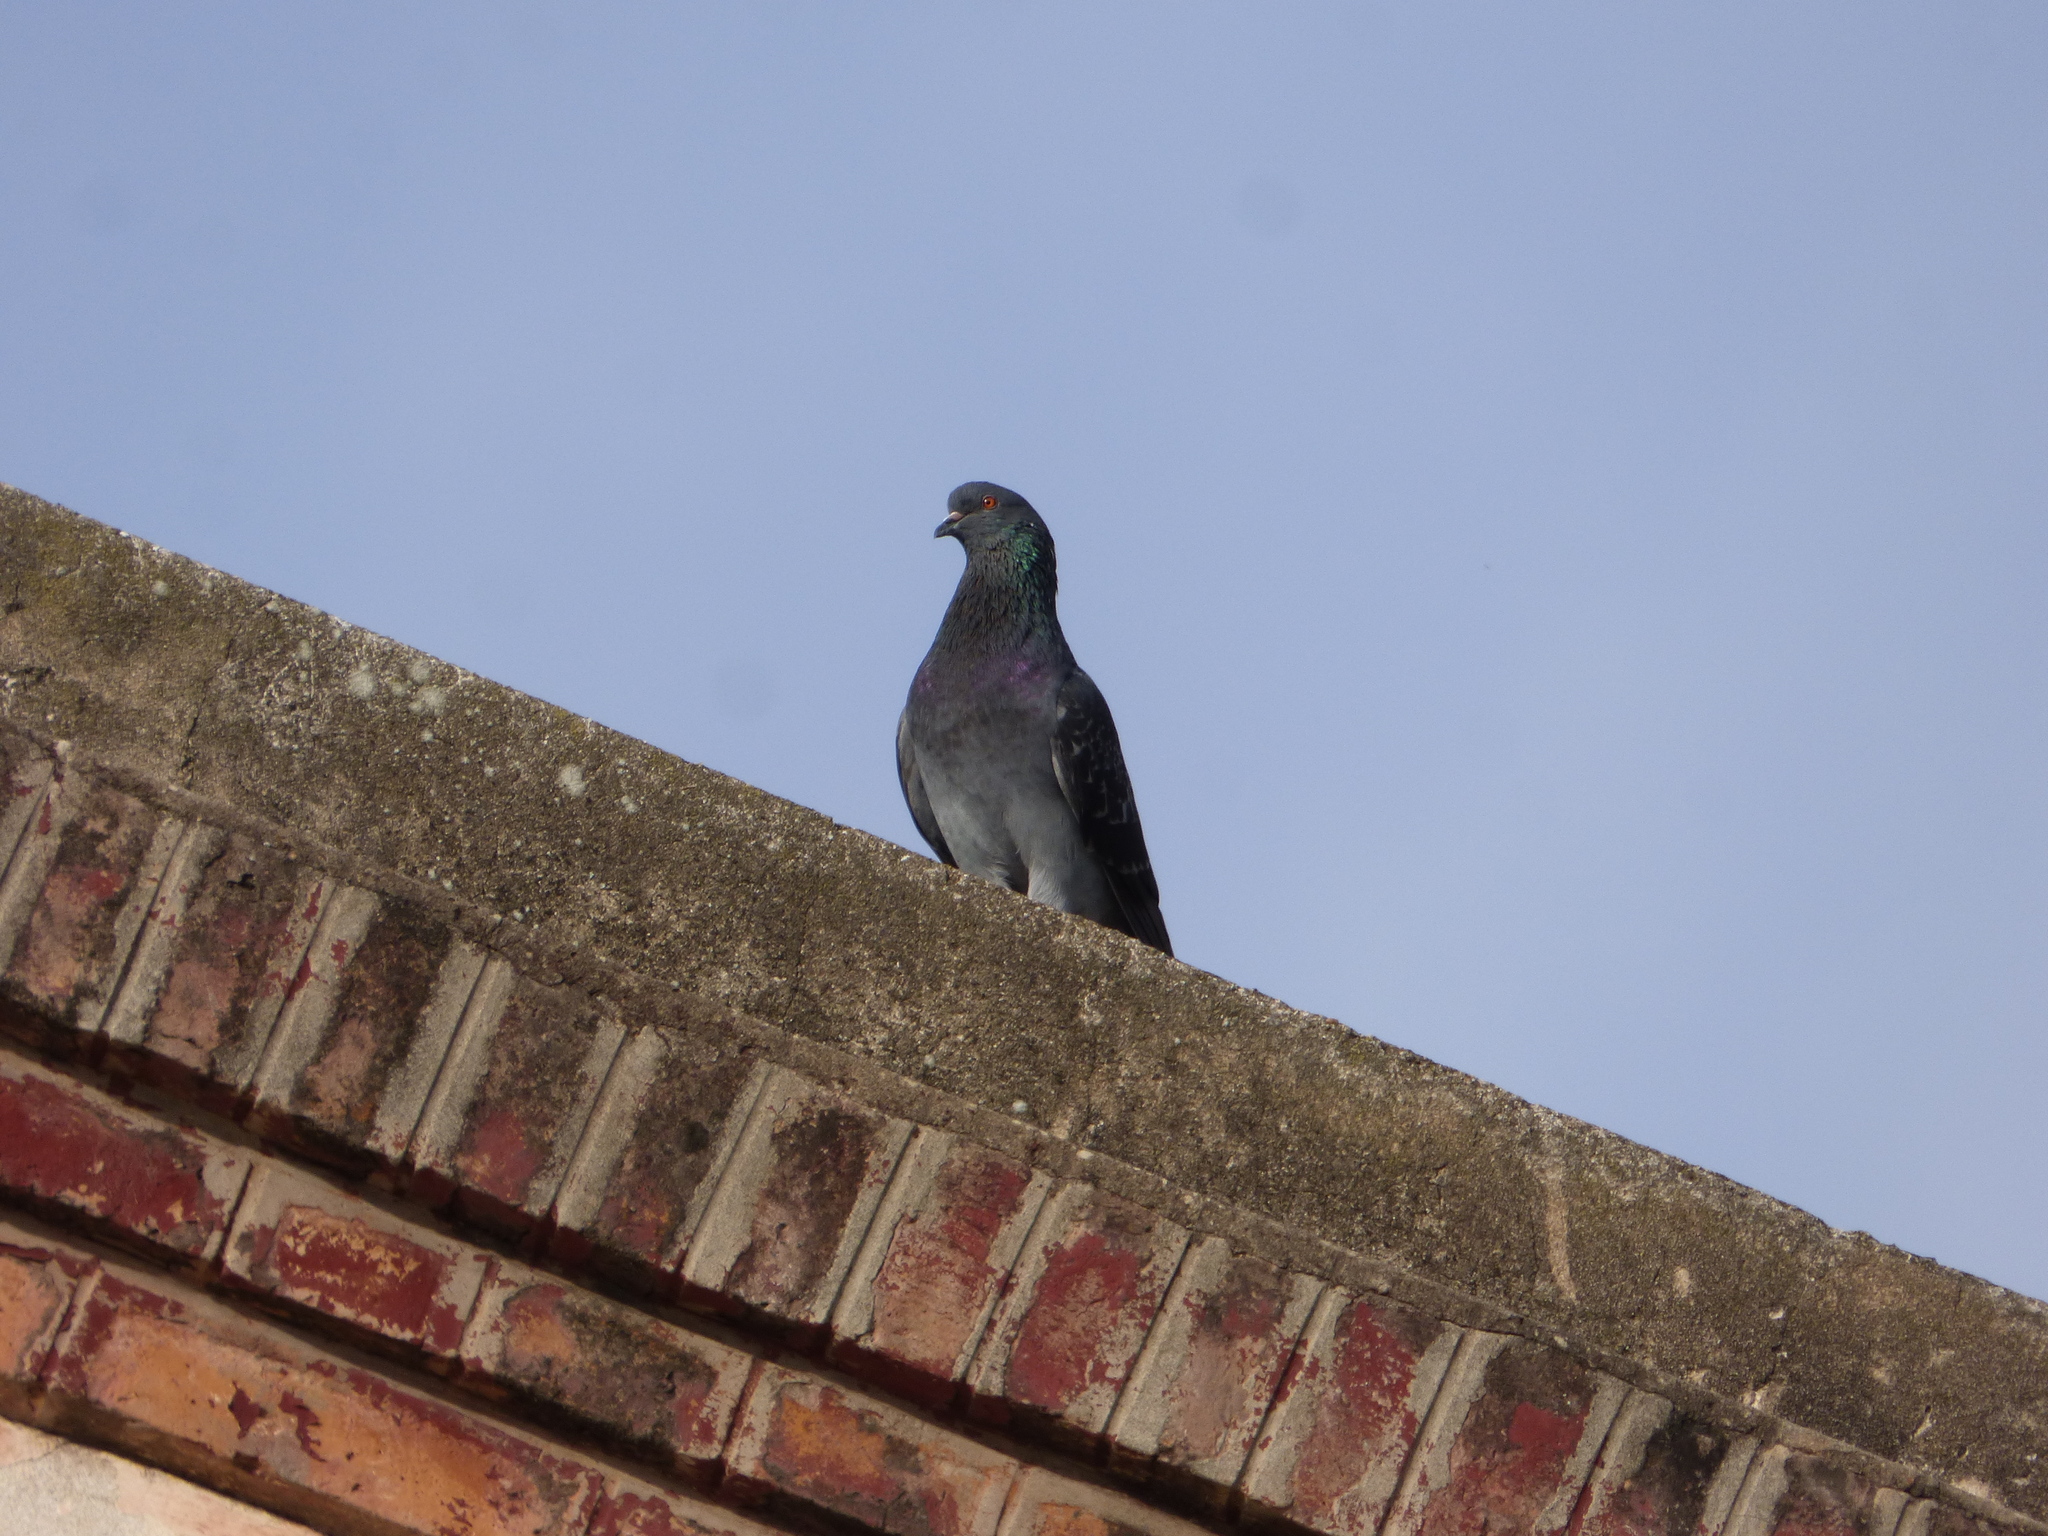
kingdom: Animalia
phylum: Chordata
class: Aves
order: Columbiformes
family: Columbidae
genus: Columba
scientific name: Columba livia
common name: Rock pigeon
